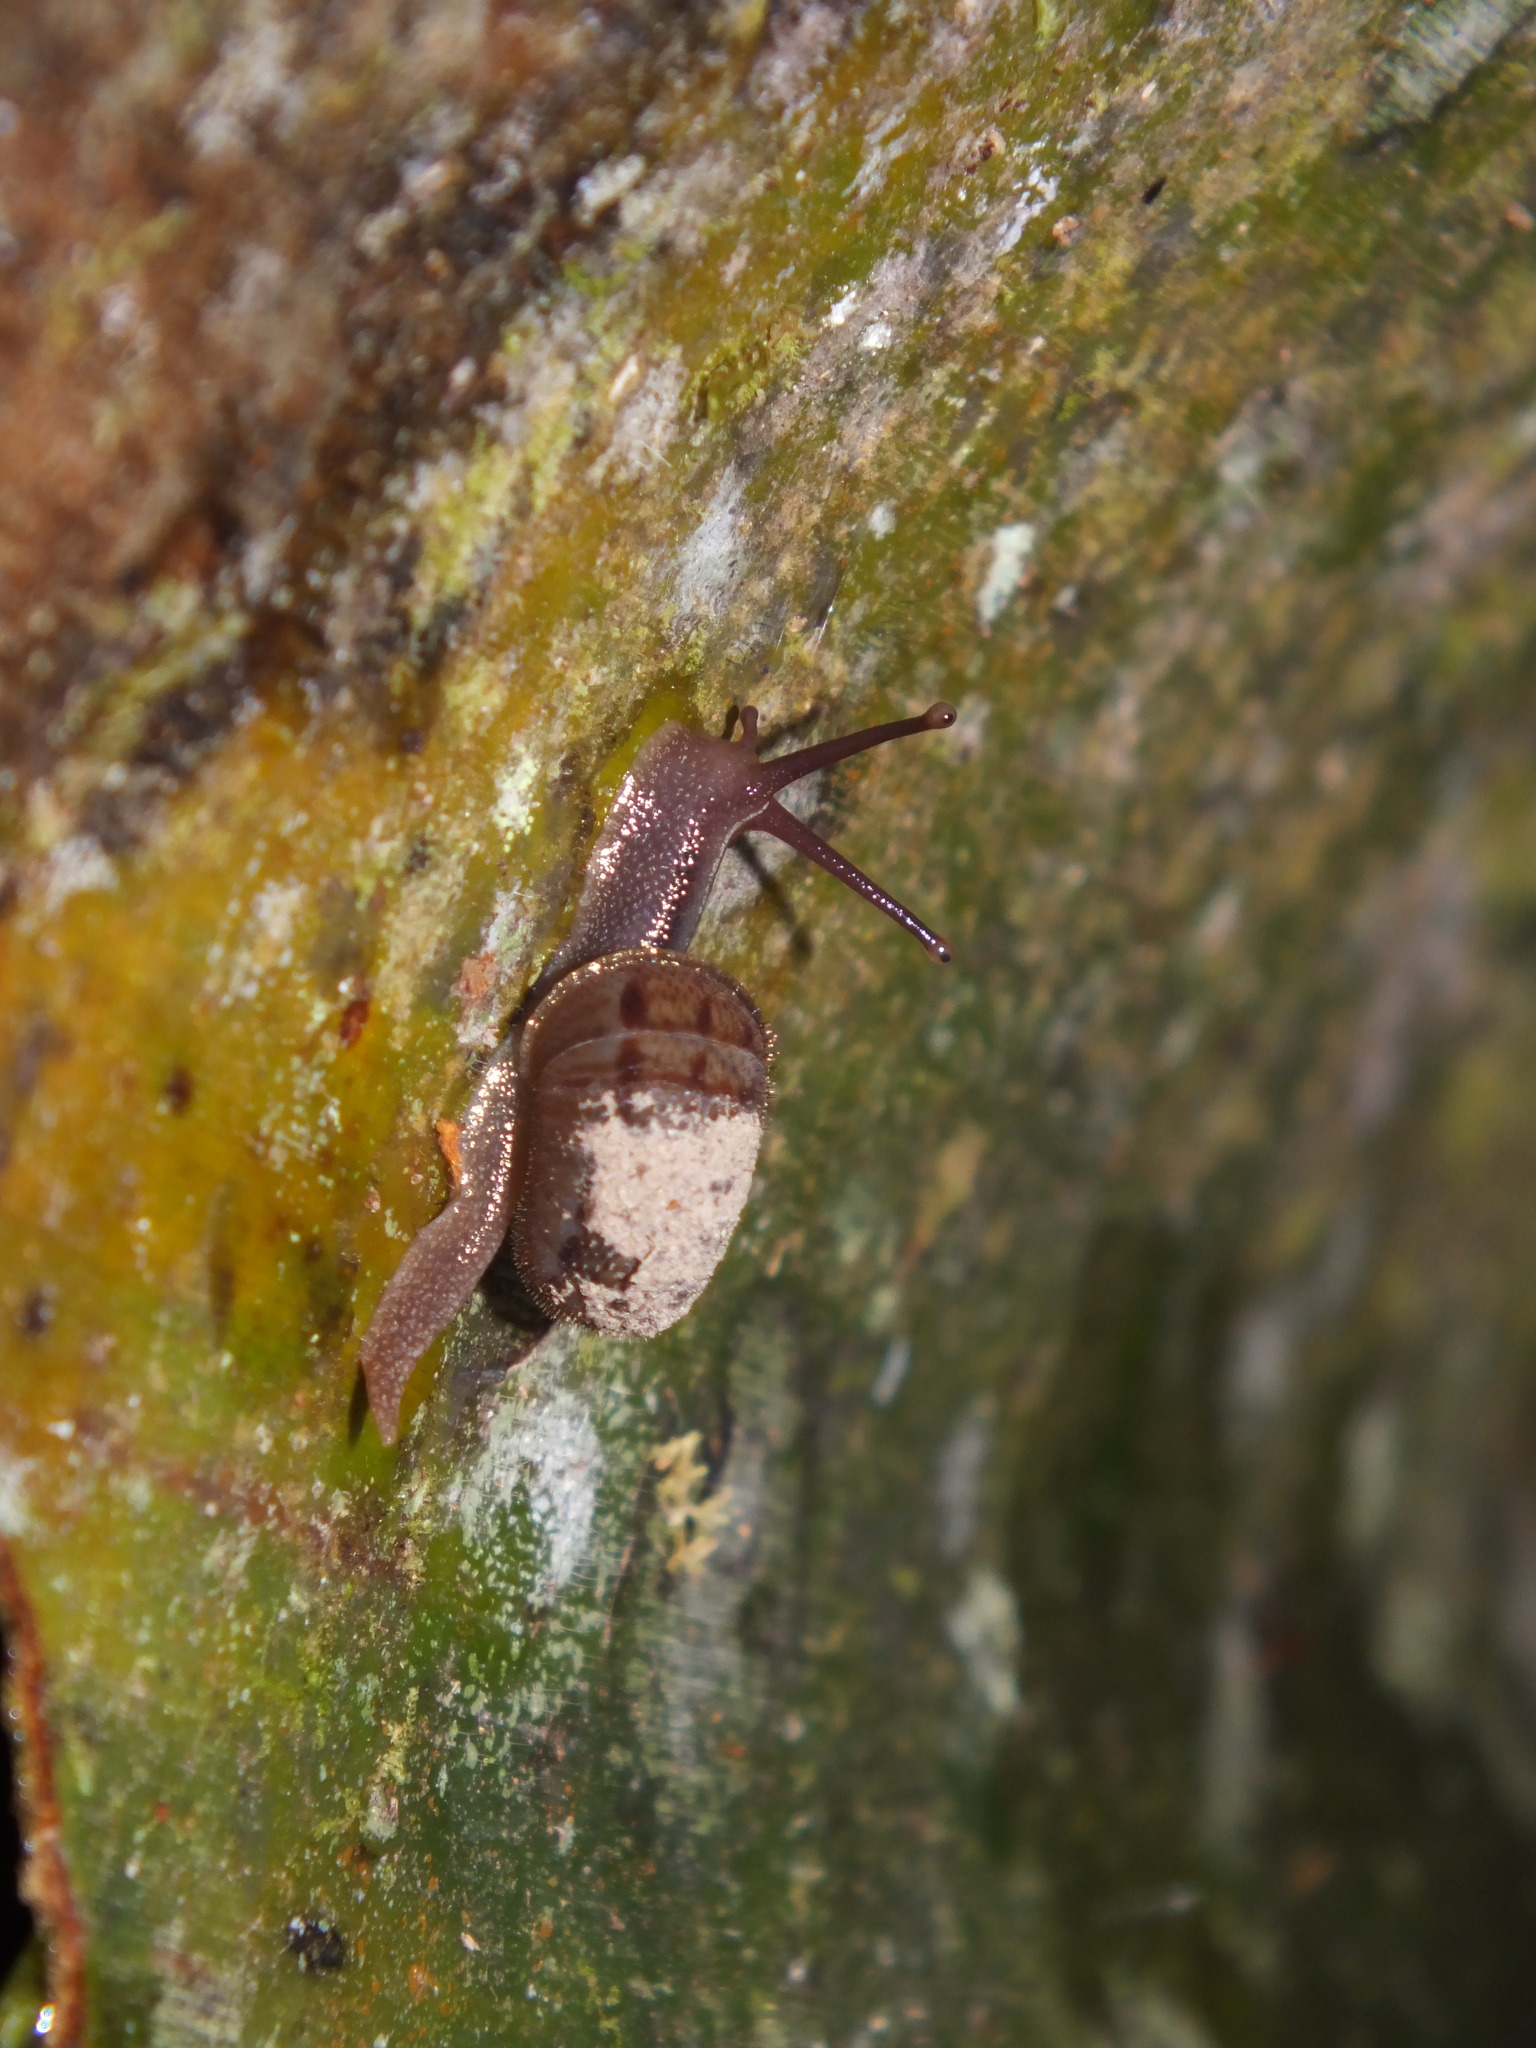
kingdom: Animalia
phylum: Mollusca
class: Gastropoda
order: Stylommatophora
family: Solaropsidae
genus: Solaropsis
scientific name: Solaropsis selenostoma
